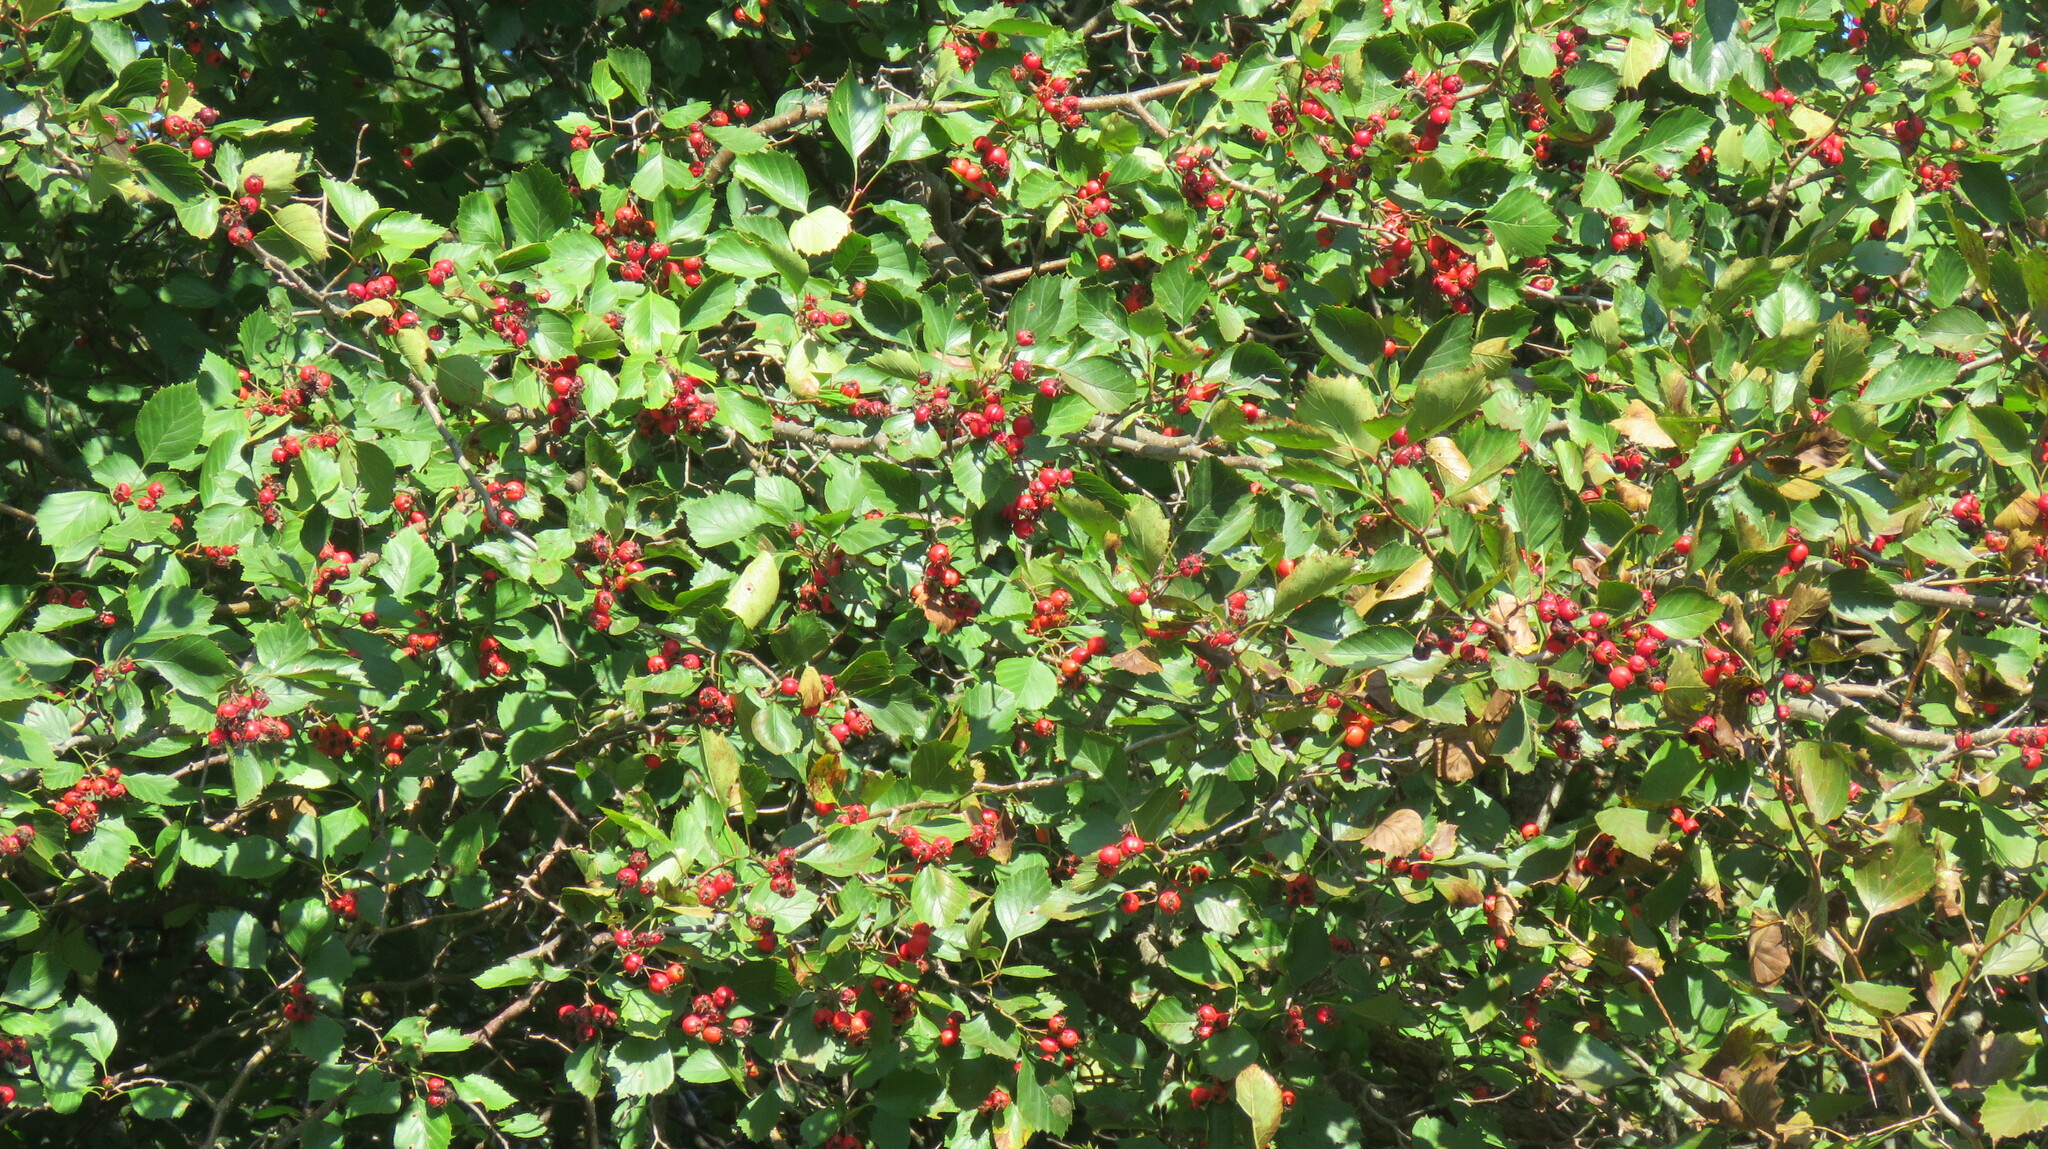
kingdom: Plantae
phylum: Tracheophyta
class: Magnoliopsida
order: Rosales
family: Rosaceae
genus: Crataegus
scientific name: Crataegus chrysocarpa
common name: Fire-berry hawthorn
